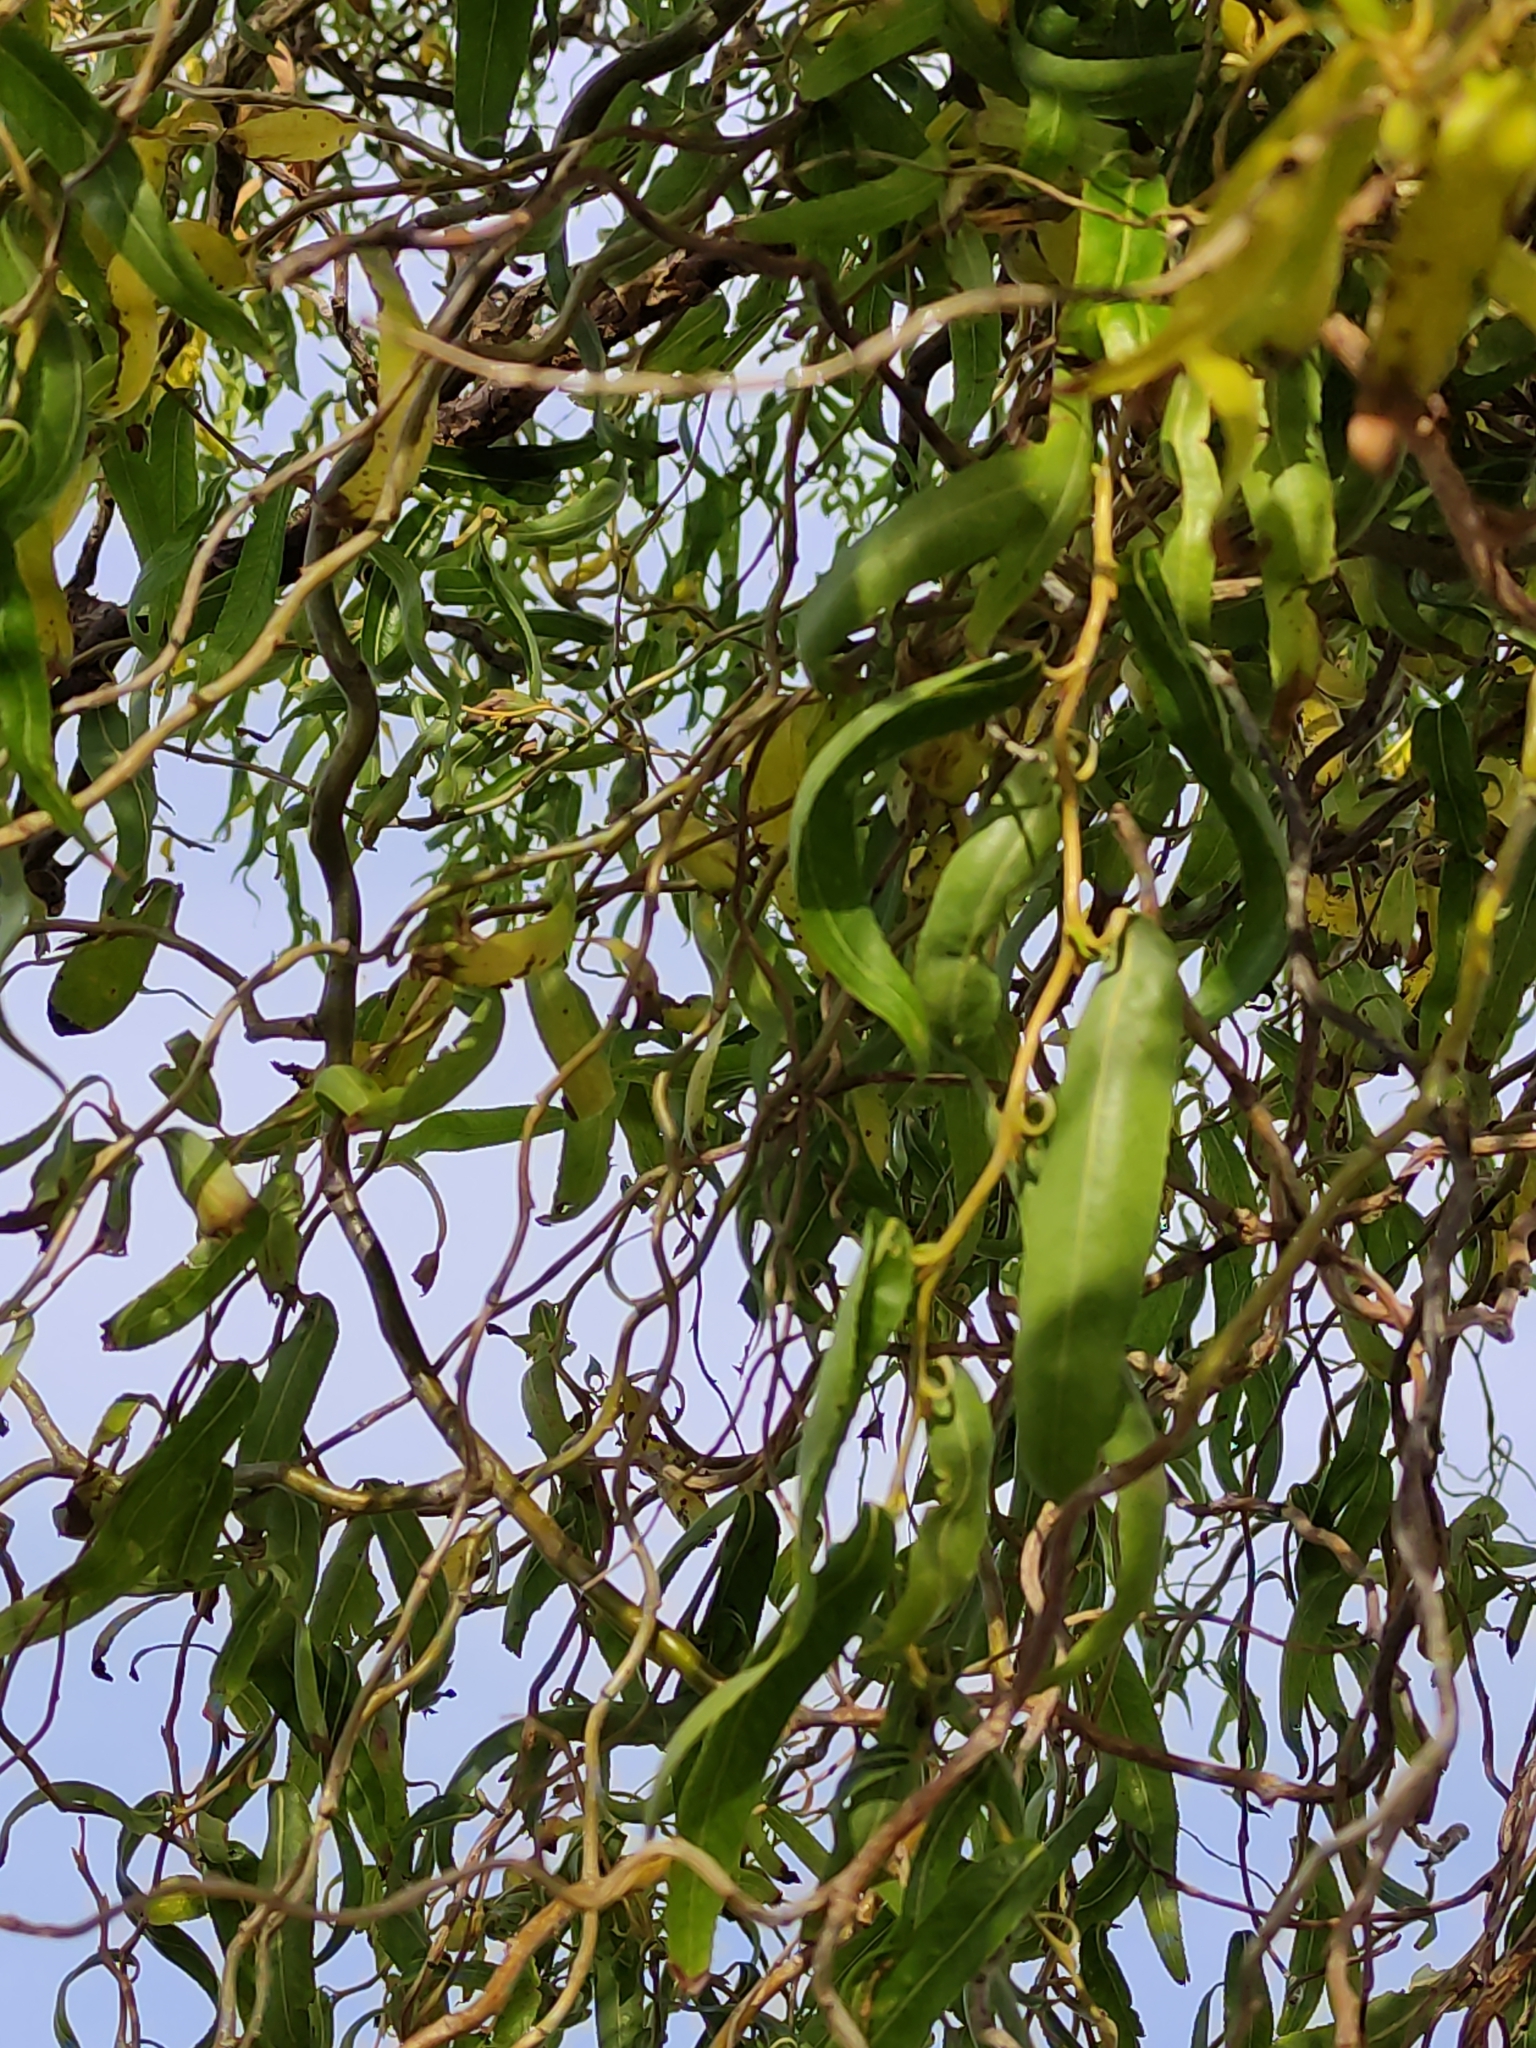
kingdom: Plantae
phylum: Tracheophyta
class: Magnoliopsida
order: Malpighiales
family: Salicaceae
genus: Salix
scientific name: Salix
